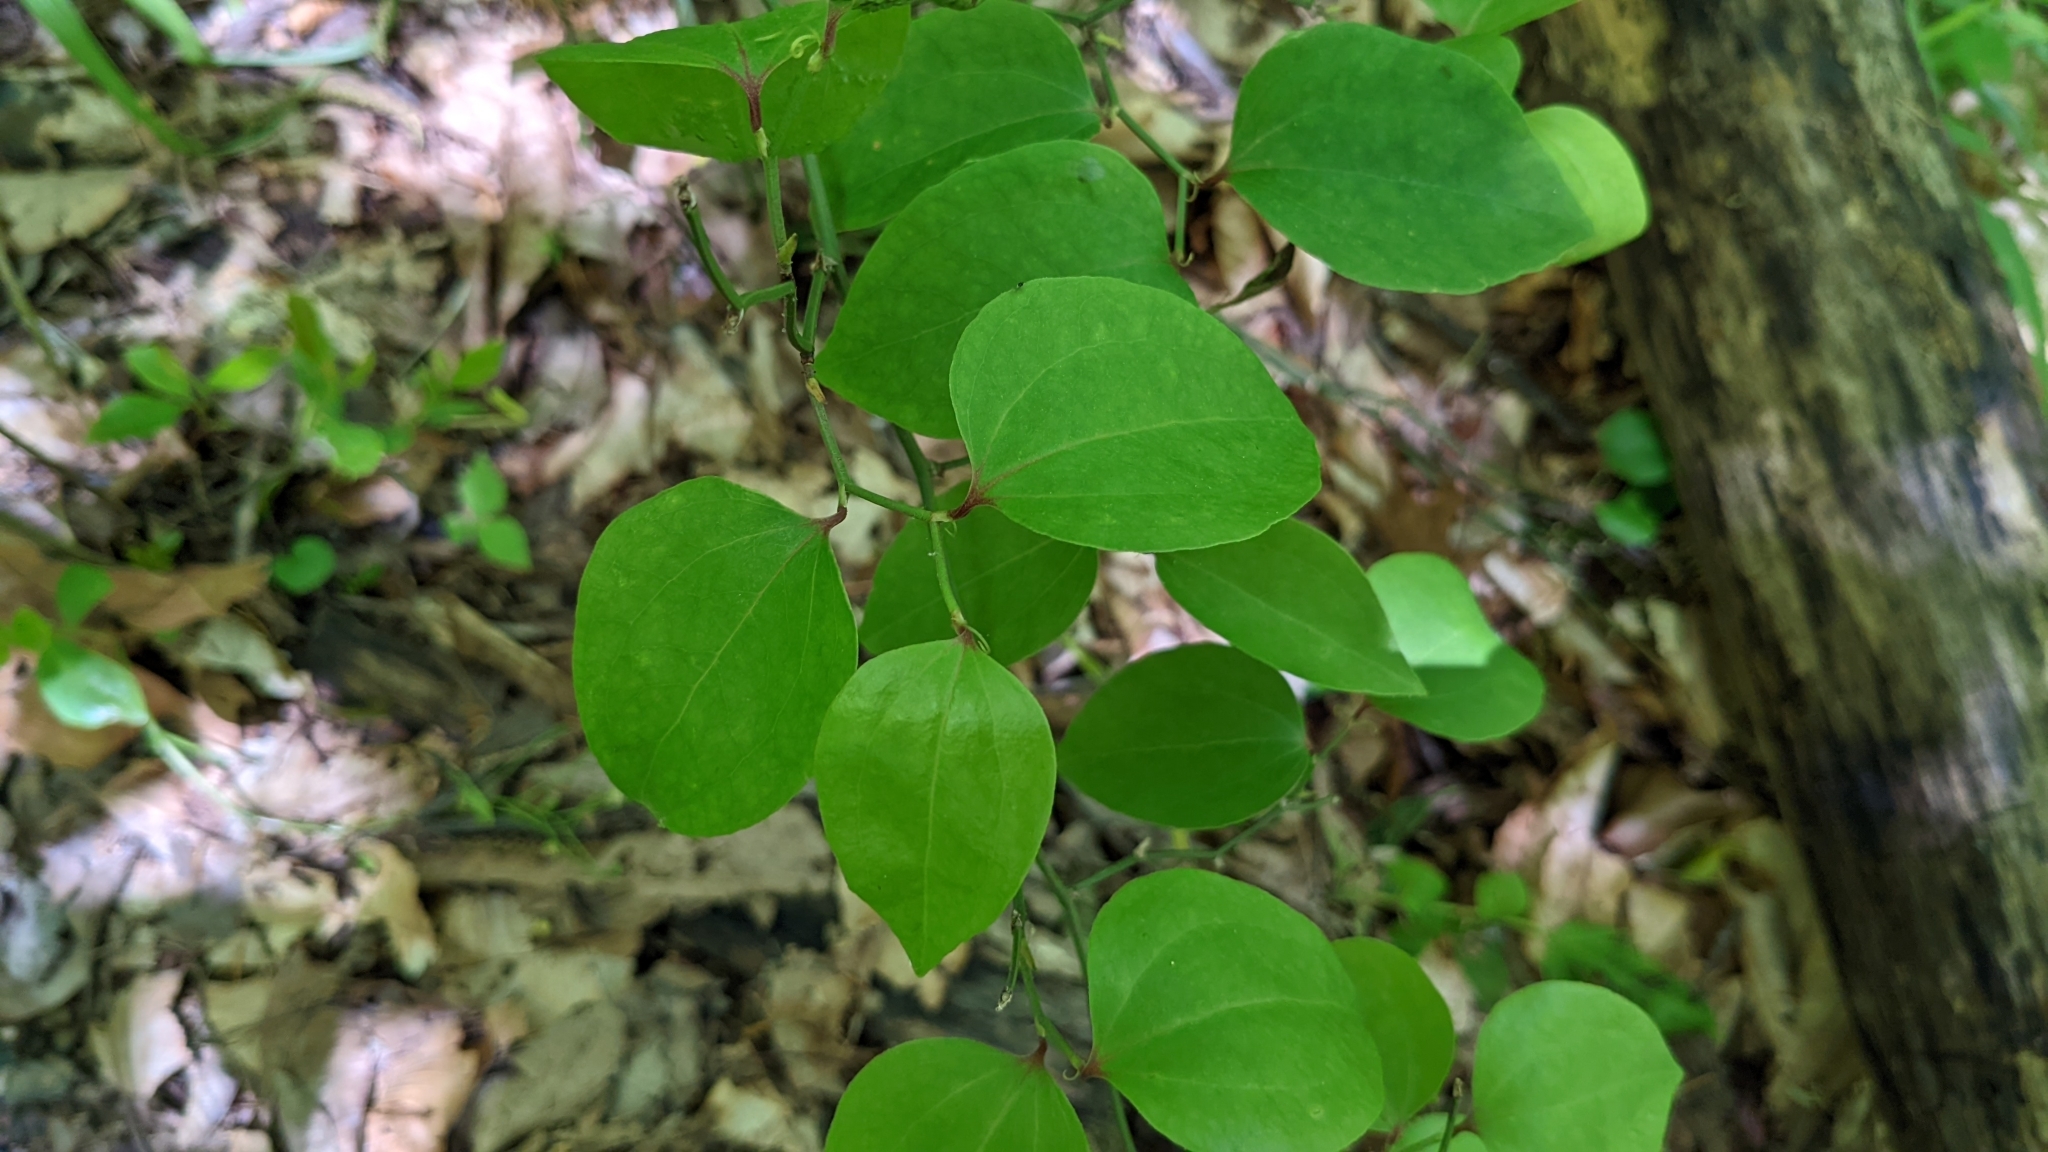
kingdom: Plantae
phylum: Tracheophyta
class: Liliopsida
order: Liliales
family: Smilacaceae
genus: Smilax
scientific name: Smilax rotundifolia
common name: Bullbriar
